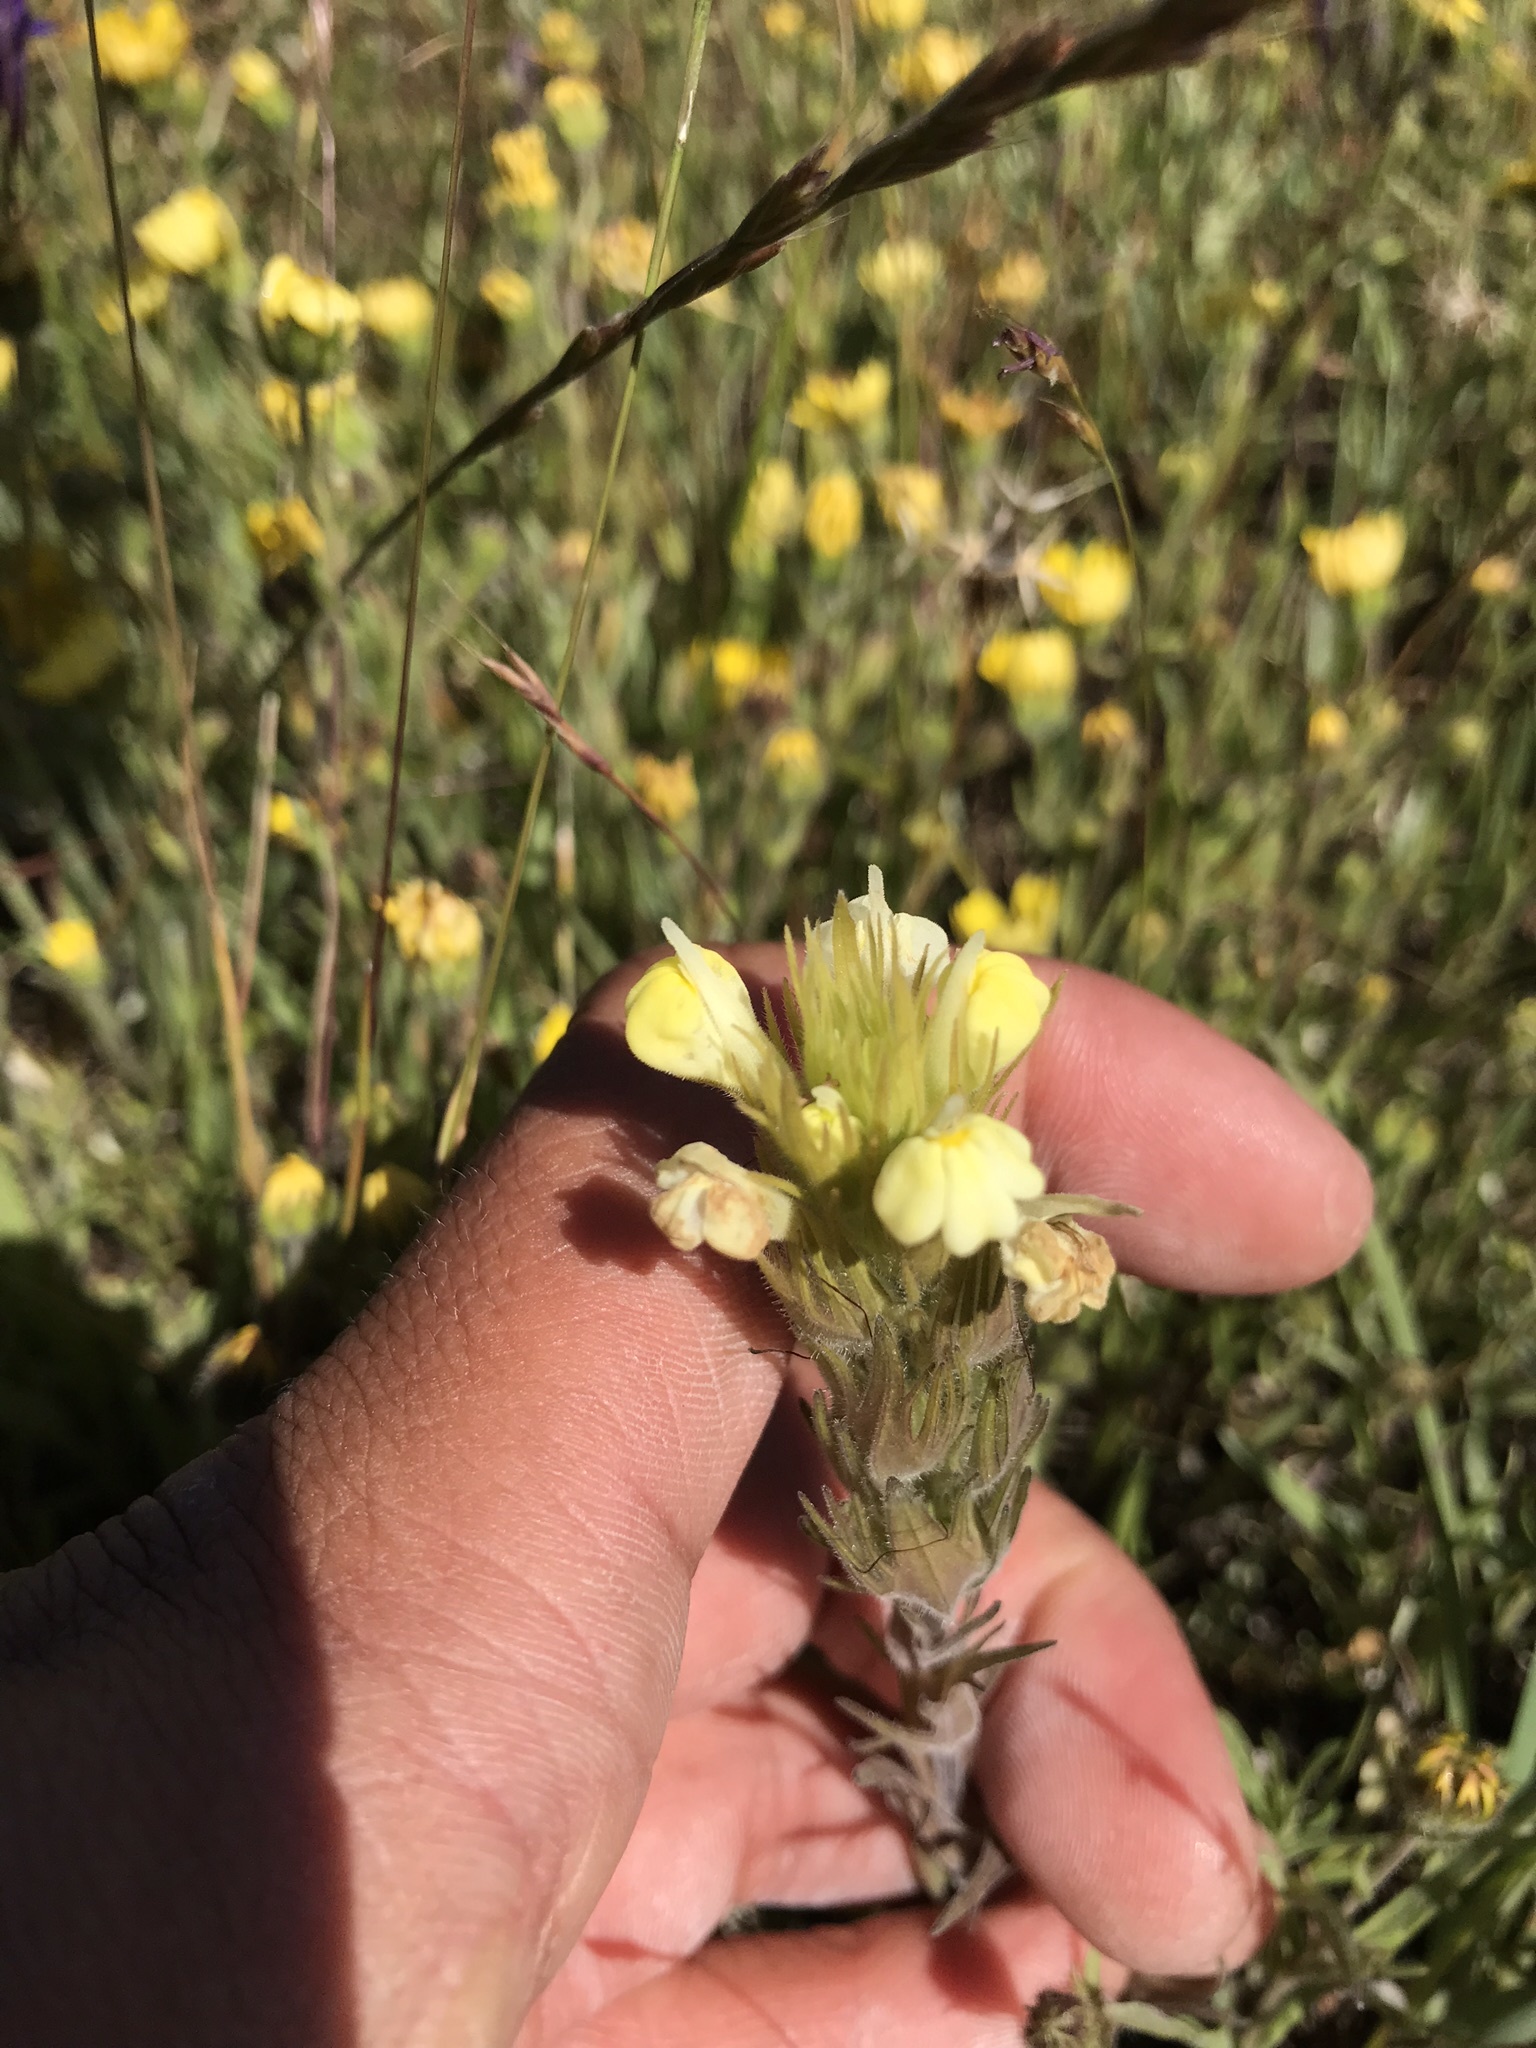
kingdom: Plantae
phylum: Tracheophyta
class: Magnoliopsida
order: Lamiales
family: Orobanchaceae
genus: Castilleja
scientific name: Castilleja rubicundula
